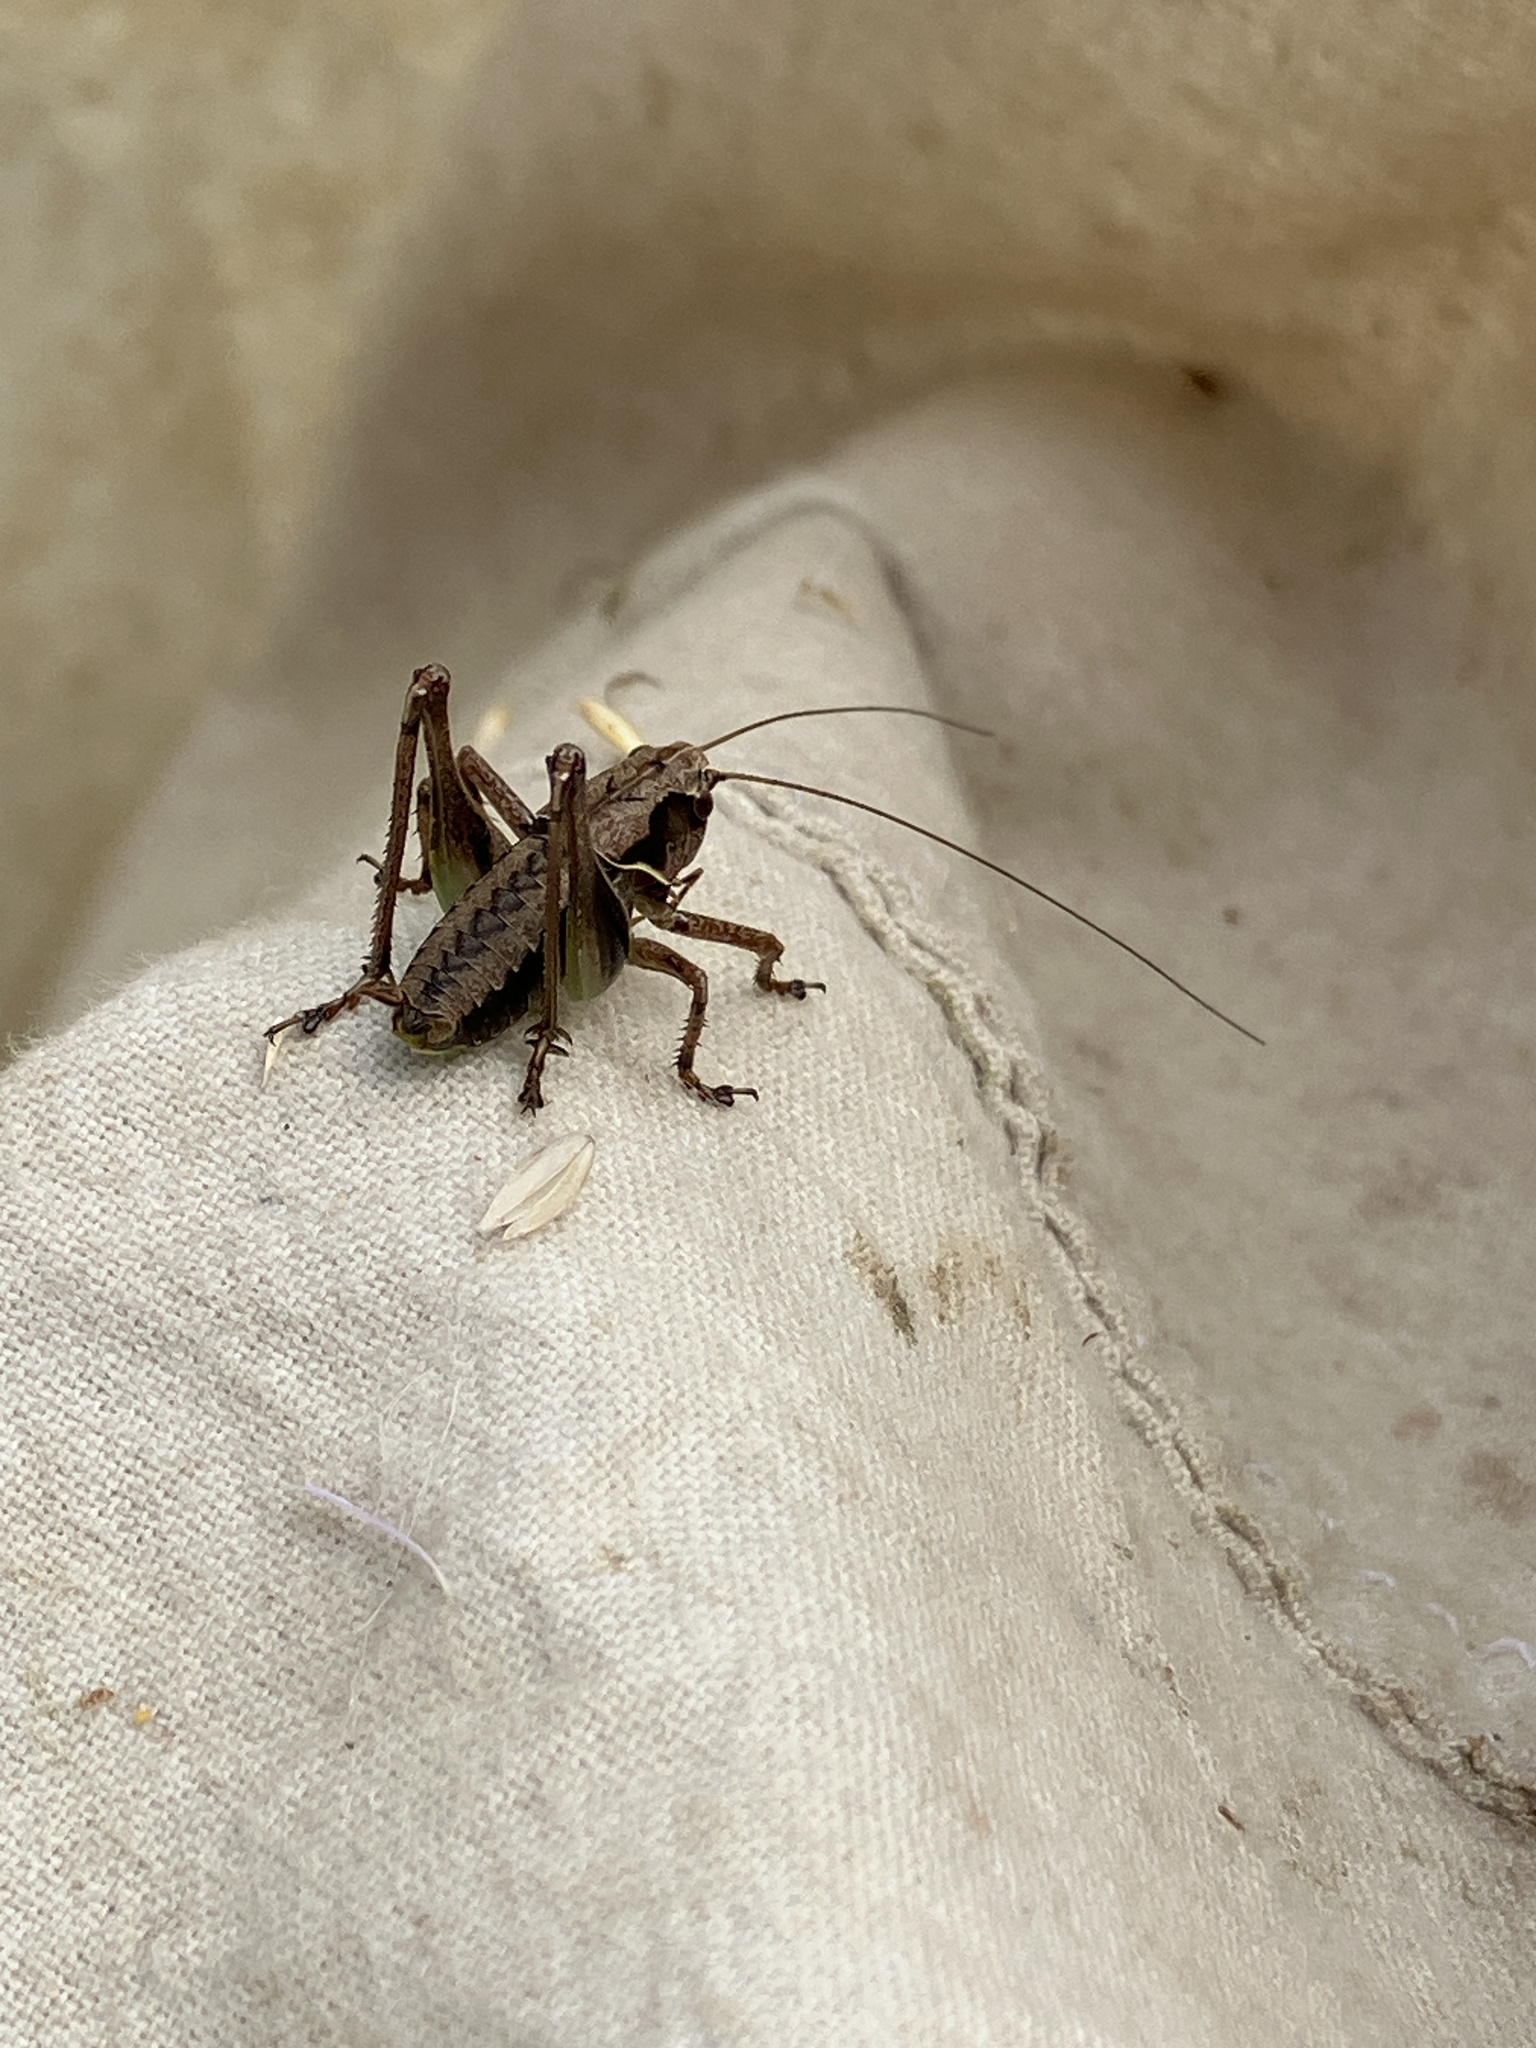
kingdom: Animalia
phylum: Arthropoda
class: Insecta
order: Orthoptera
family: Tettigoniidae
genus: Pholidoptera
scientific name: Pholidoptera griseoaptera
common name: Dark bush-cricket
